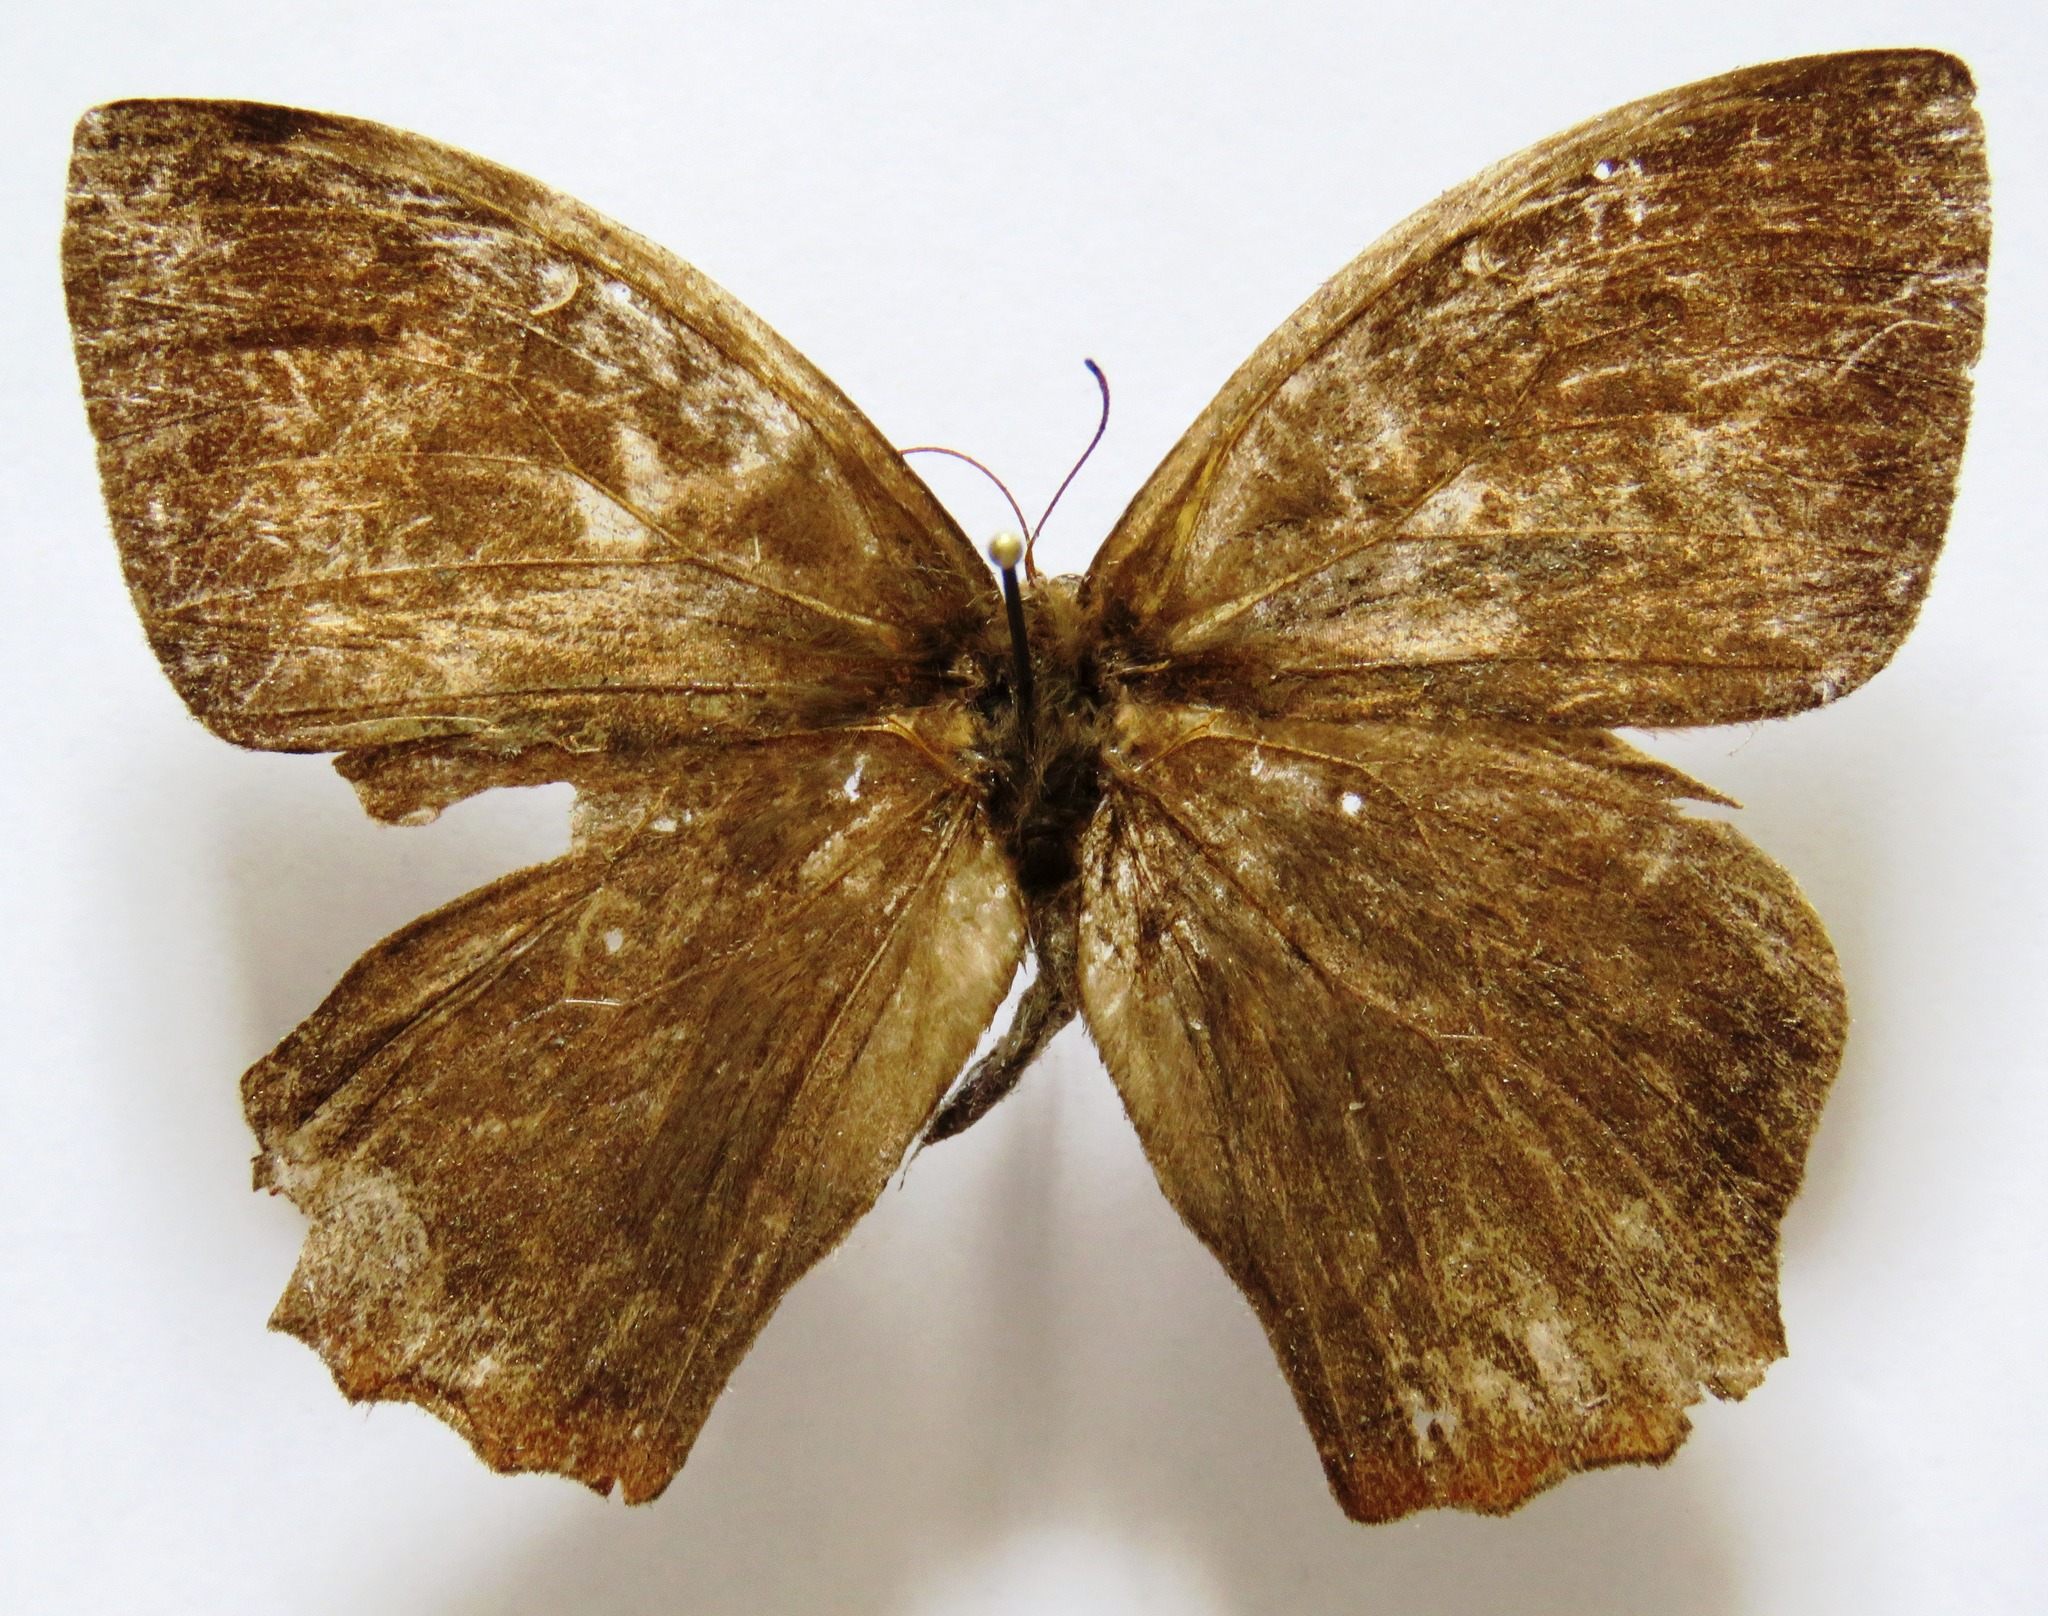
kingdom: Animalia
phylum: Arthropoda
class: Insecta
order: Lepidoptera
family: Nymphalidae
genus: Taygetis
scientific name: Taygetis virgilia
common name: Stub-tailed satyr
